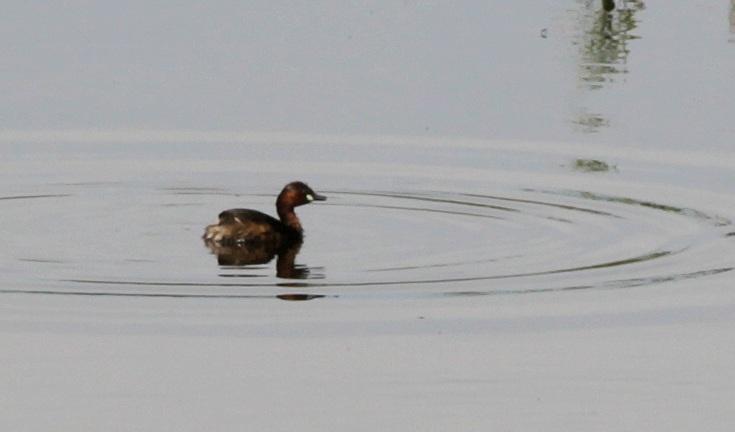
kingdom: Animalia
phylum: Chordata
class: Aves
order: Podicipediformes
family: Podicipedidae
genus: Tachybaptus
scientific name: Tachybaptus ruficollis
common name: Little grebe
